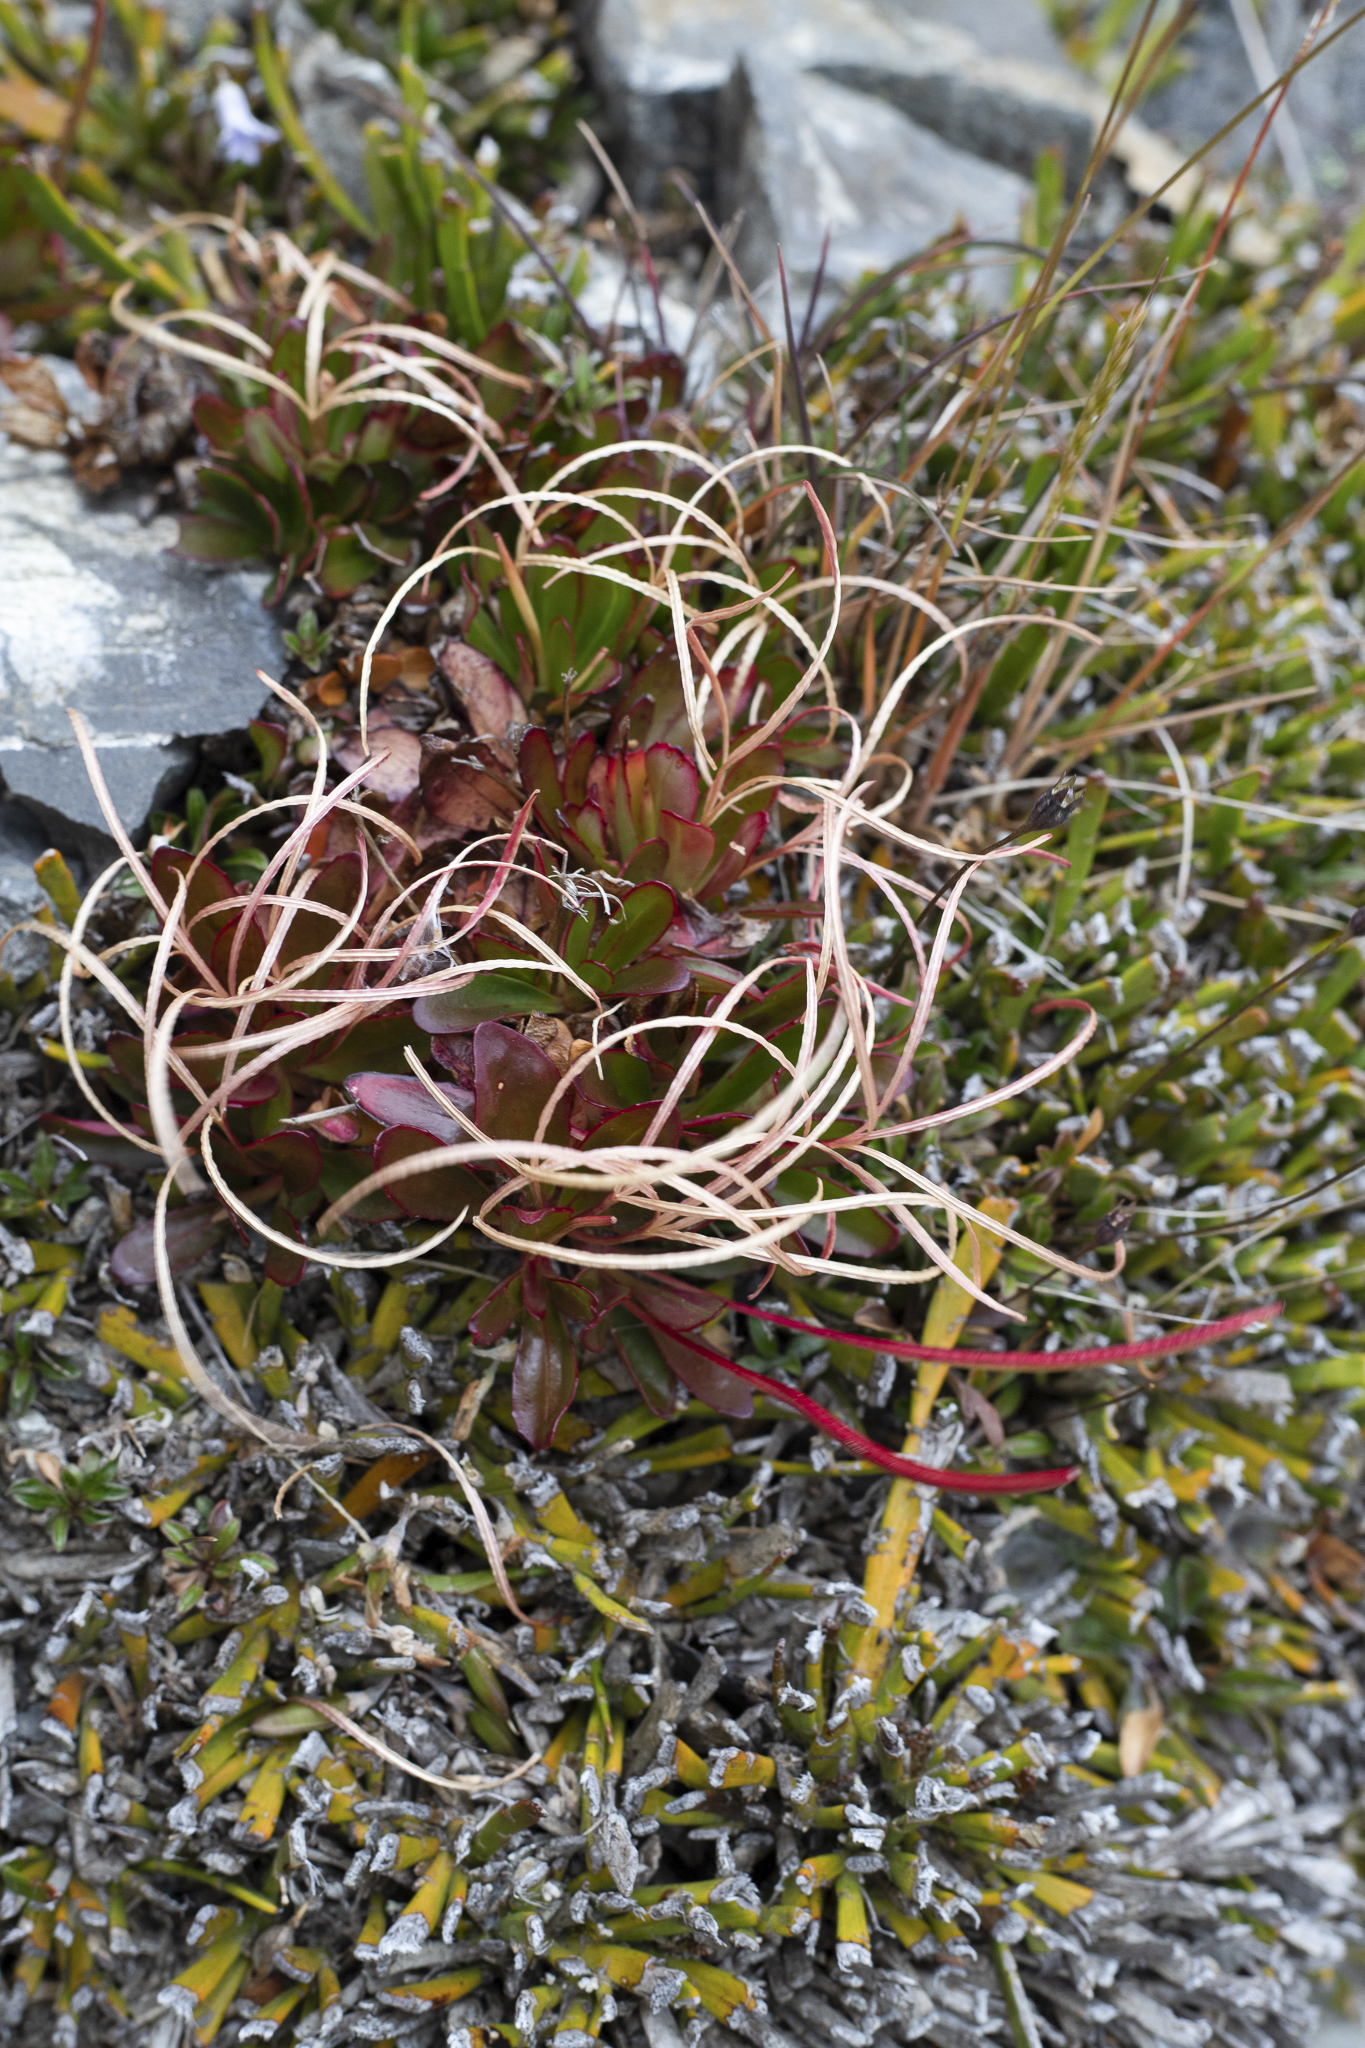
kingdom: Plantae
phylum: Tracheophyta
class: Magnoliopsida
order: Myrtales
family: Onagraceae
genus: Epilobium
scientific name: Epilobium crassum
